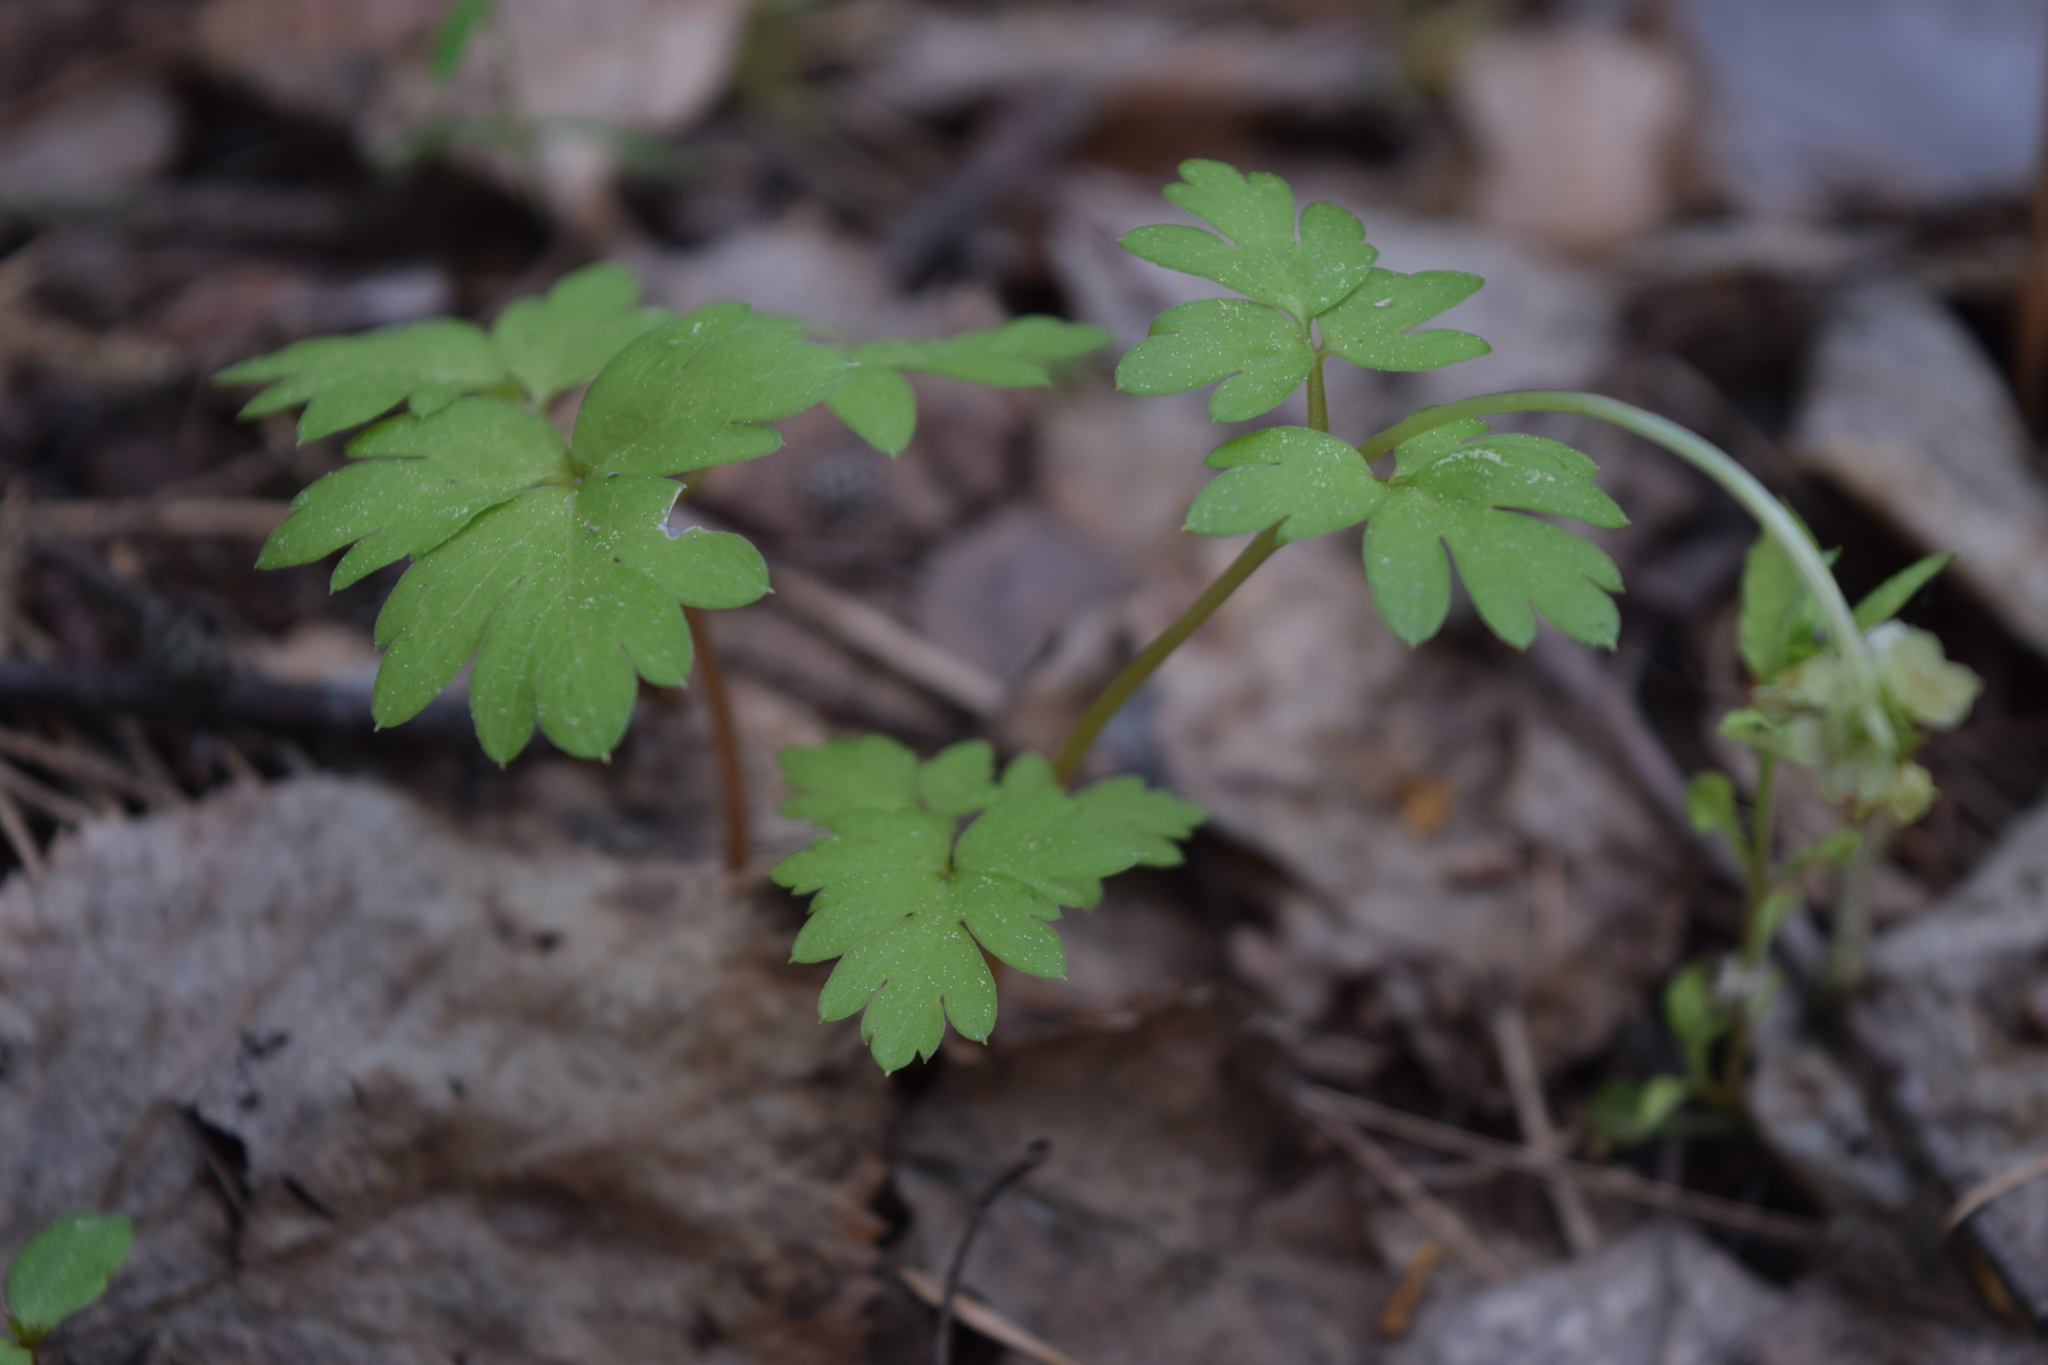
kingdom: Plantae
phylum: Tracheophyta
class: Magnoliopsida
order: Dipsacales
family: Viburnaceae
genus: Adoxa
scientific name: Adoxa moschatellina
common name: Moschatel
